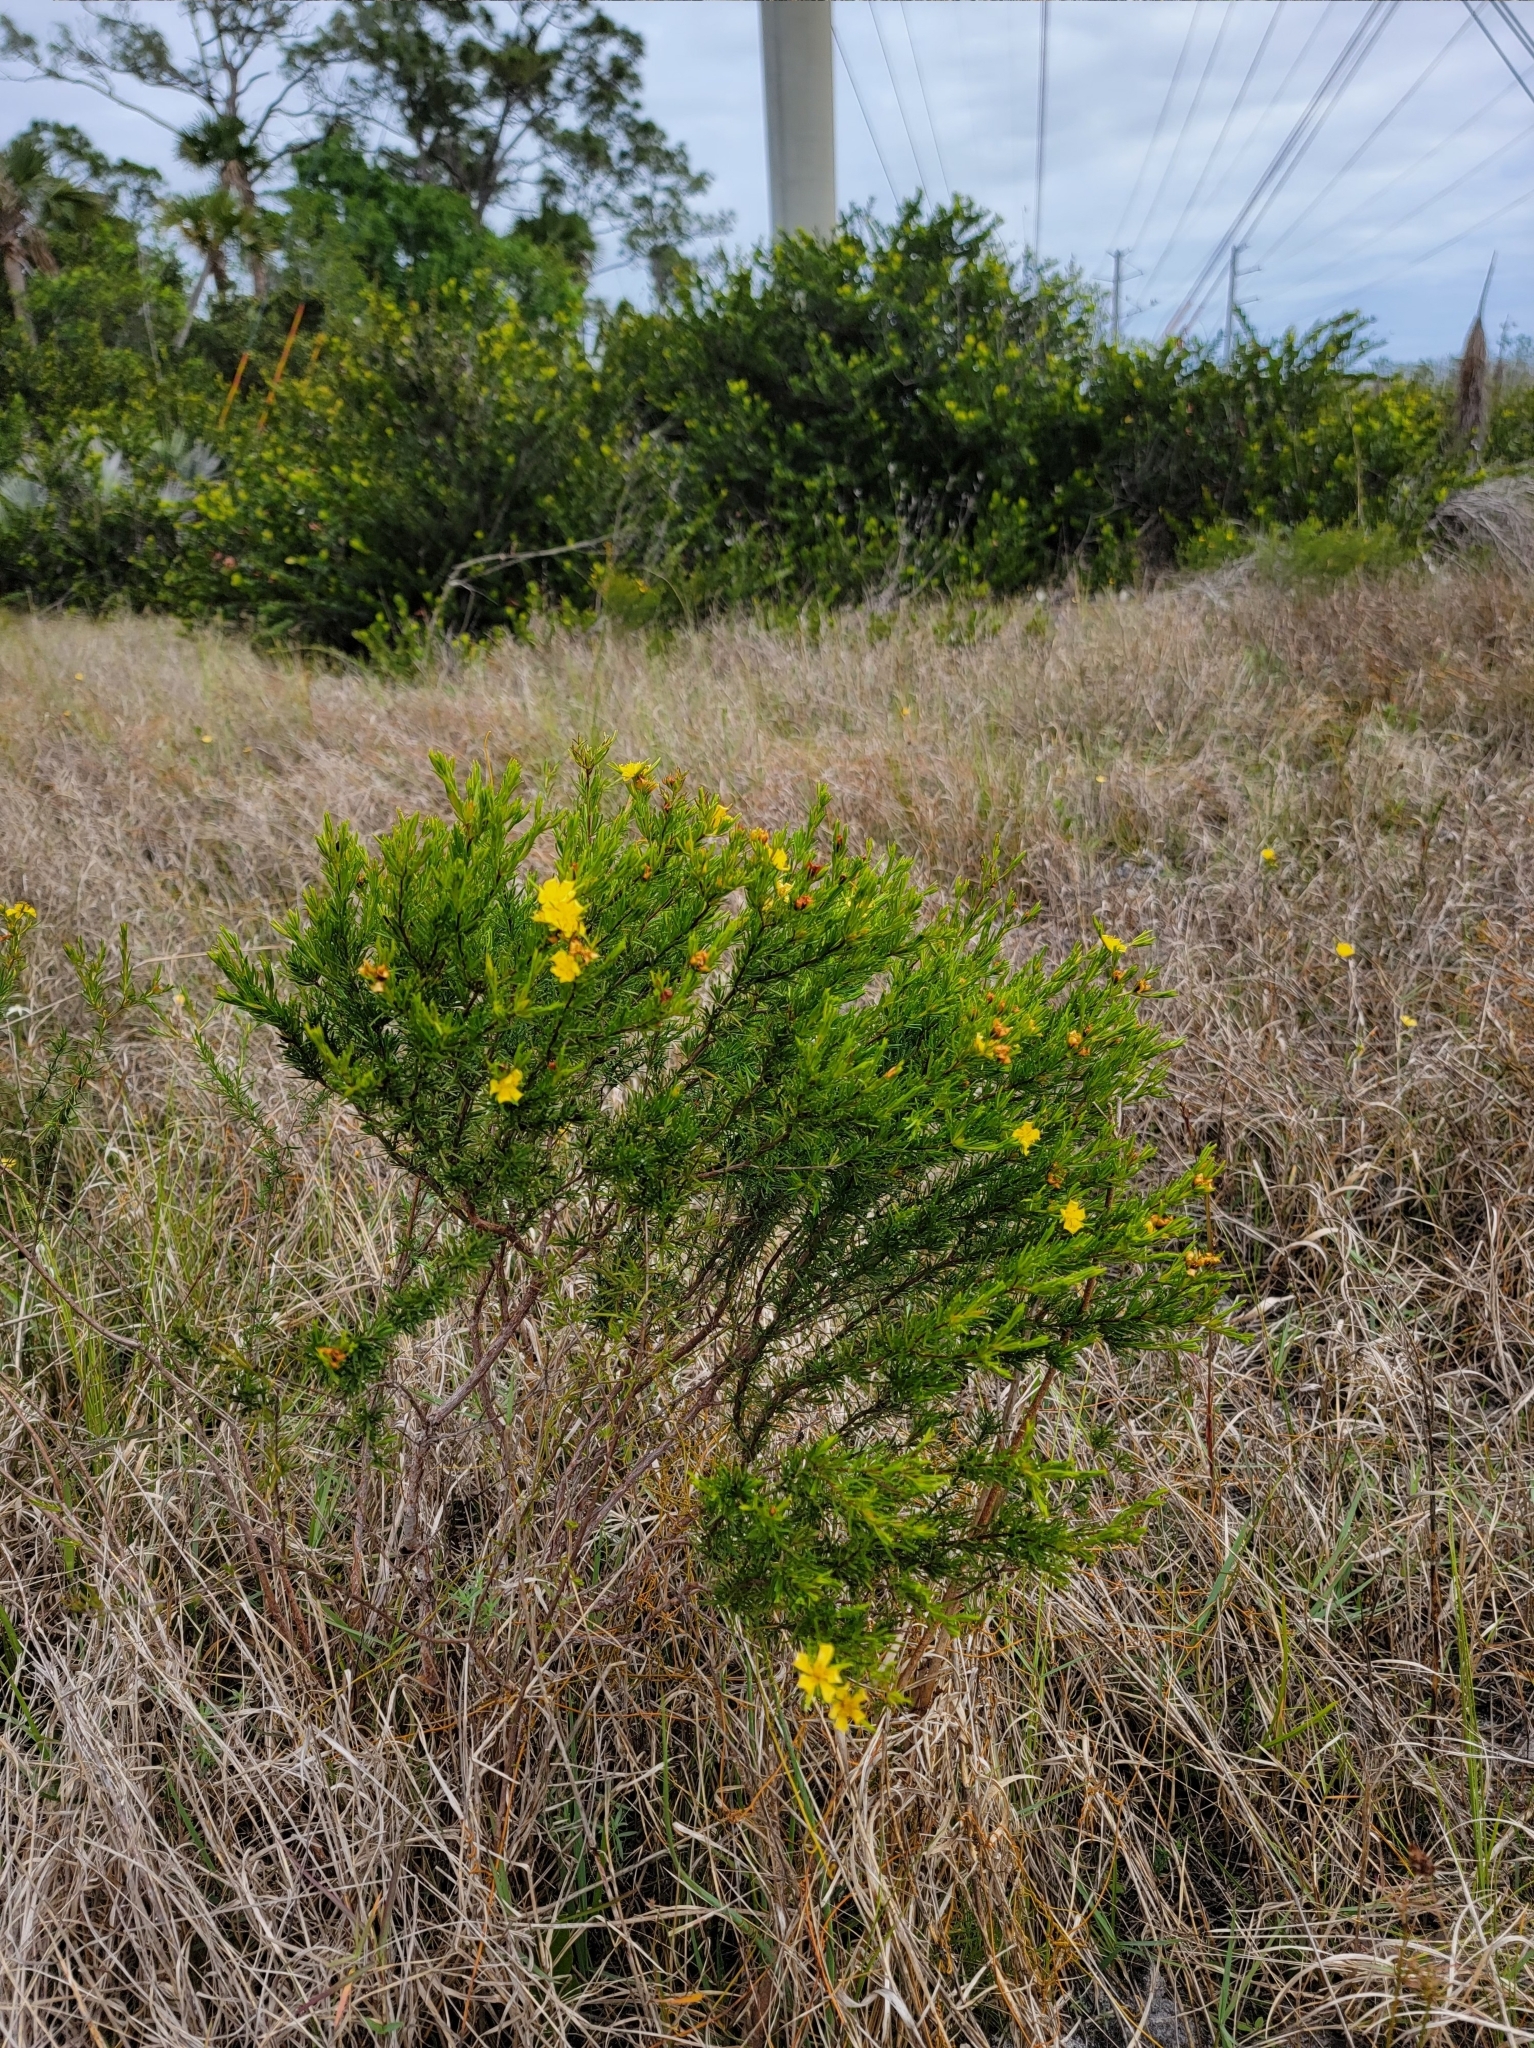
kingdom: Plantae
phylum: Tracheophyta
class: Magnoliopsida
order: Malpighiales
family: Hypericaceae
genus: Hypericum
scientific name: Hypericum fasciculatum
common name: Peelbark st. john's wort
